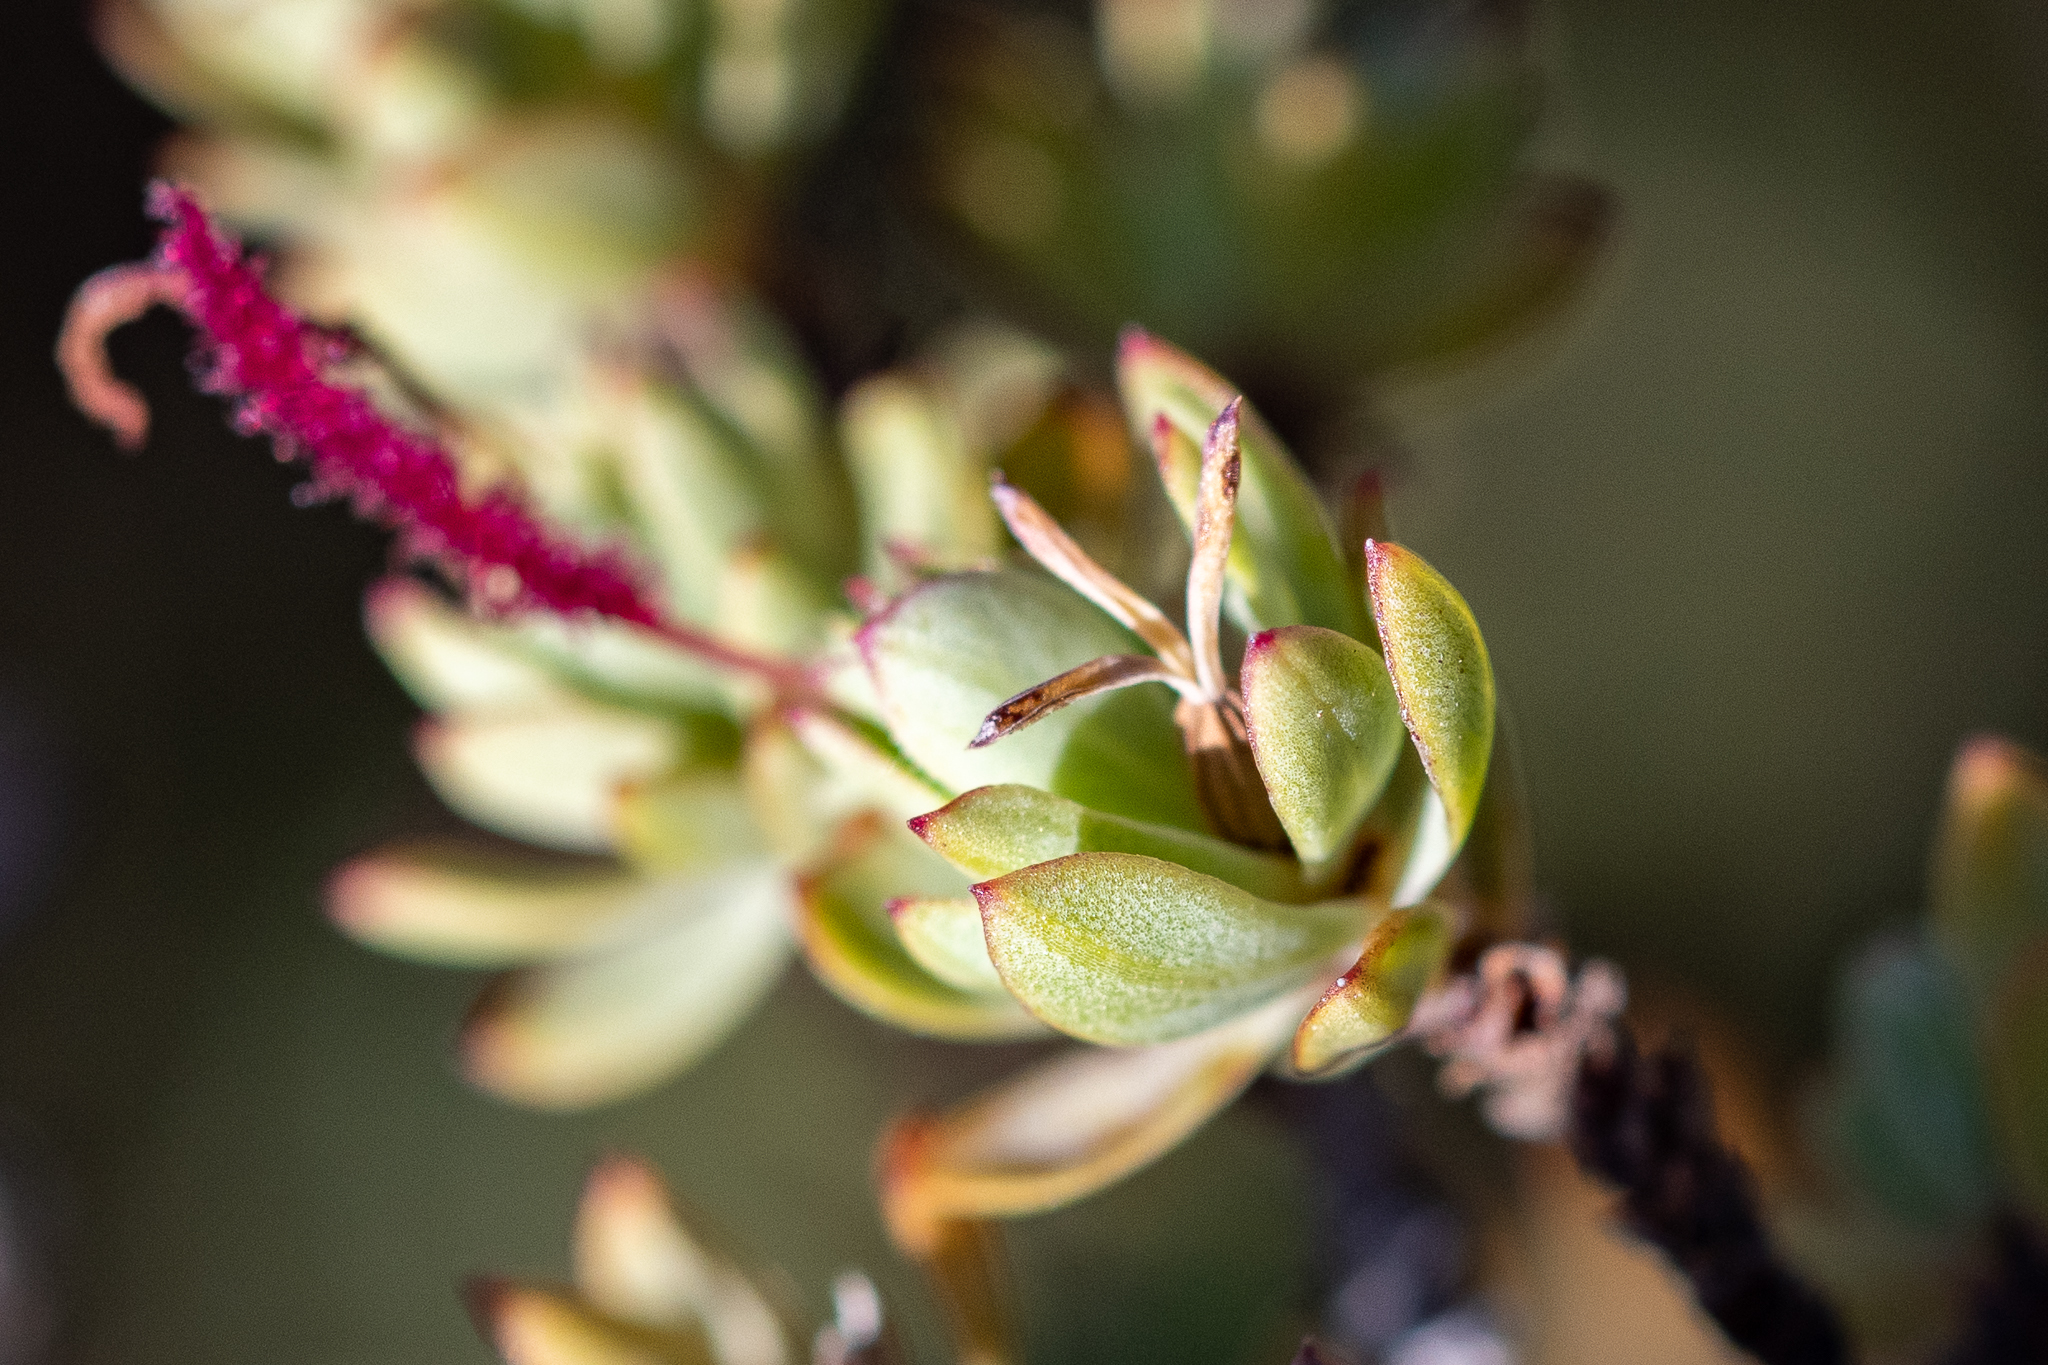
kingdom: Plantae
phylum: Tracheophyta
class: Magnoliopsida
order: Rosales
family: Rosaceae
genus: Cliffortia
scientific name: Cliffortia carinata
